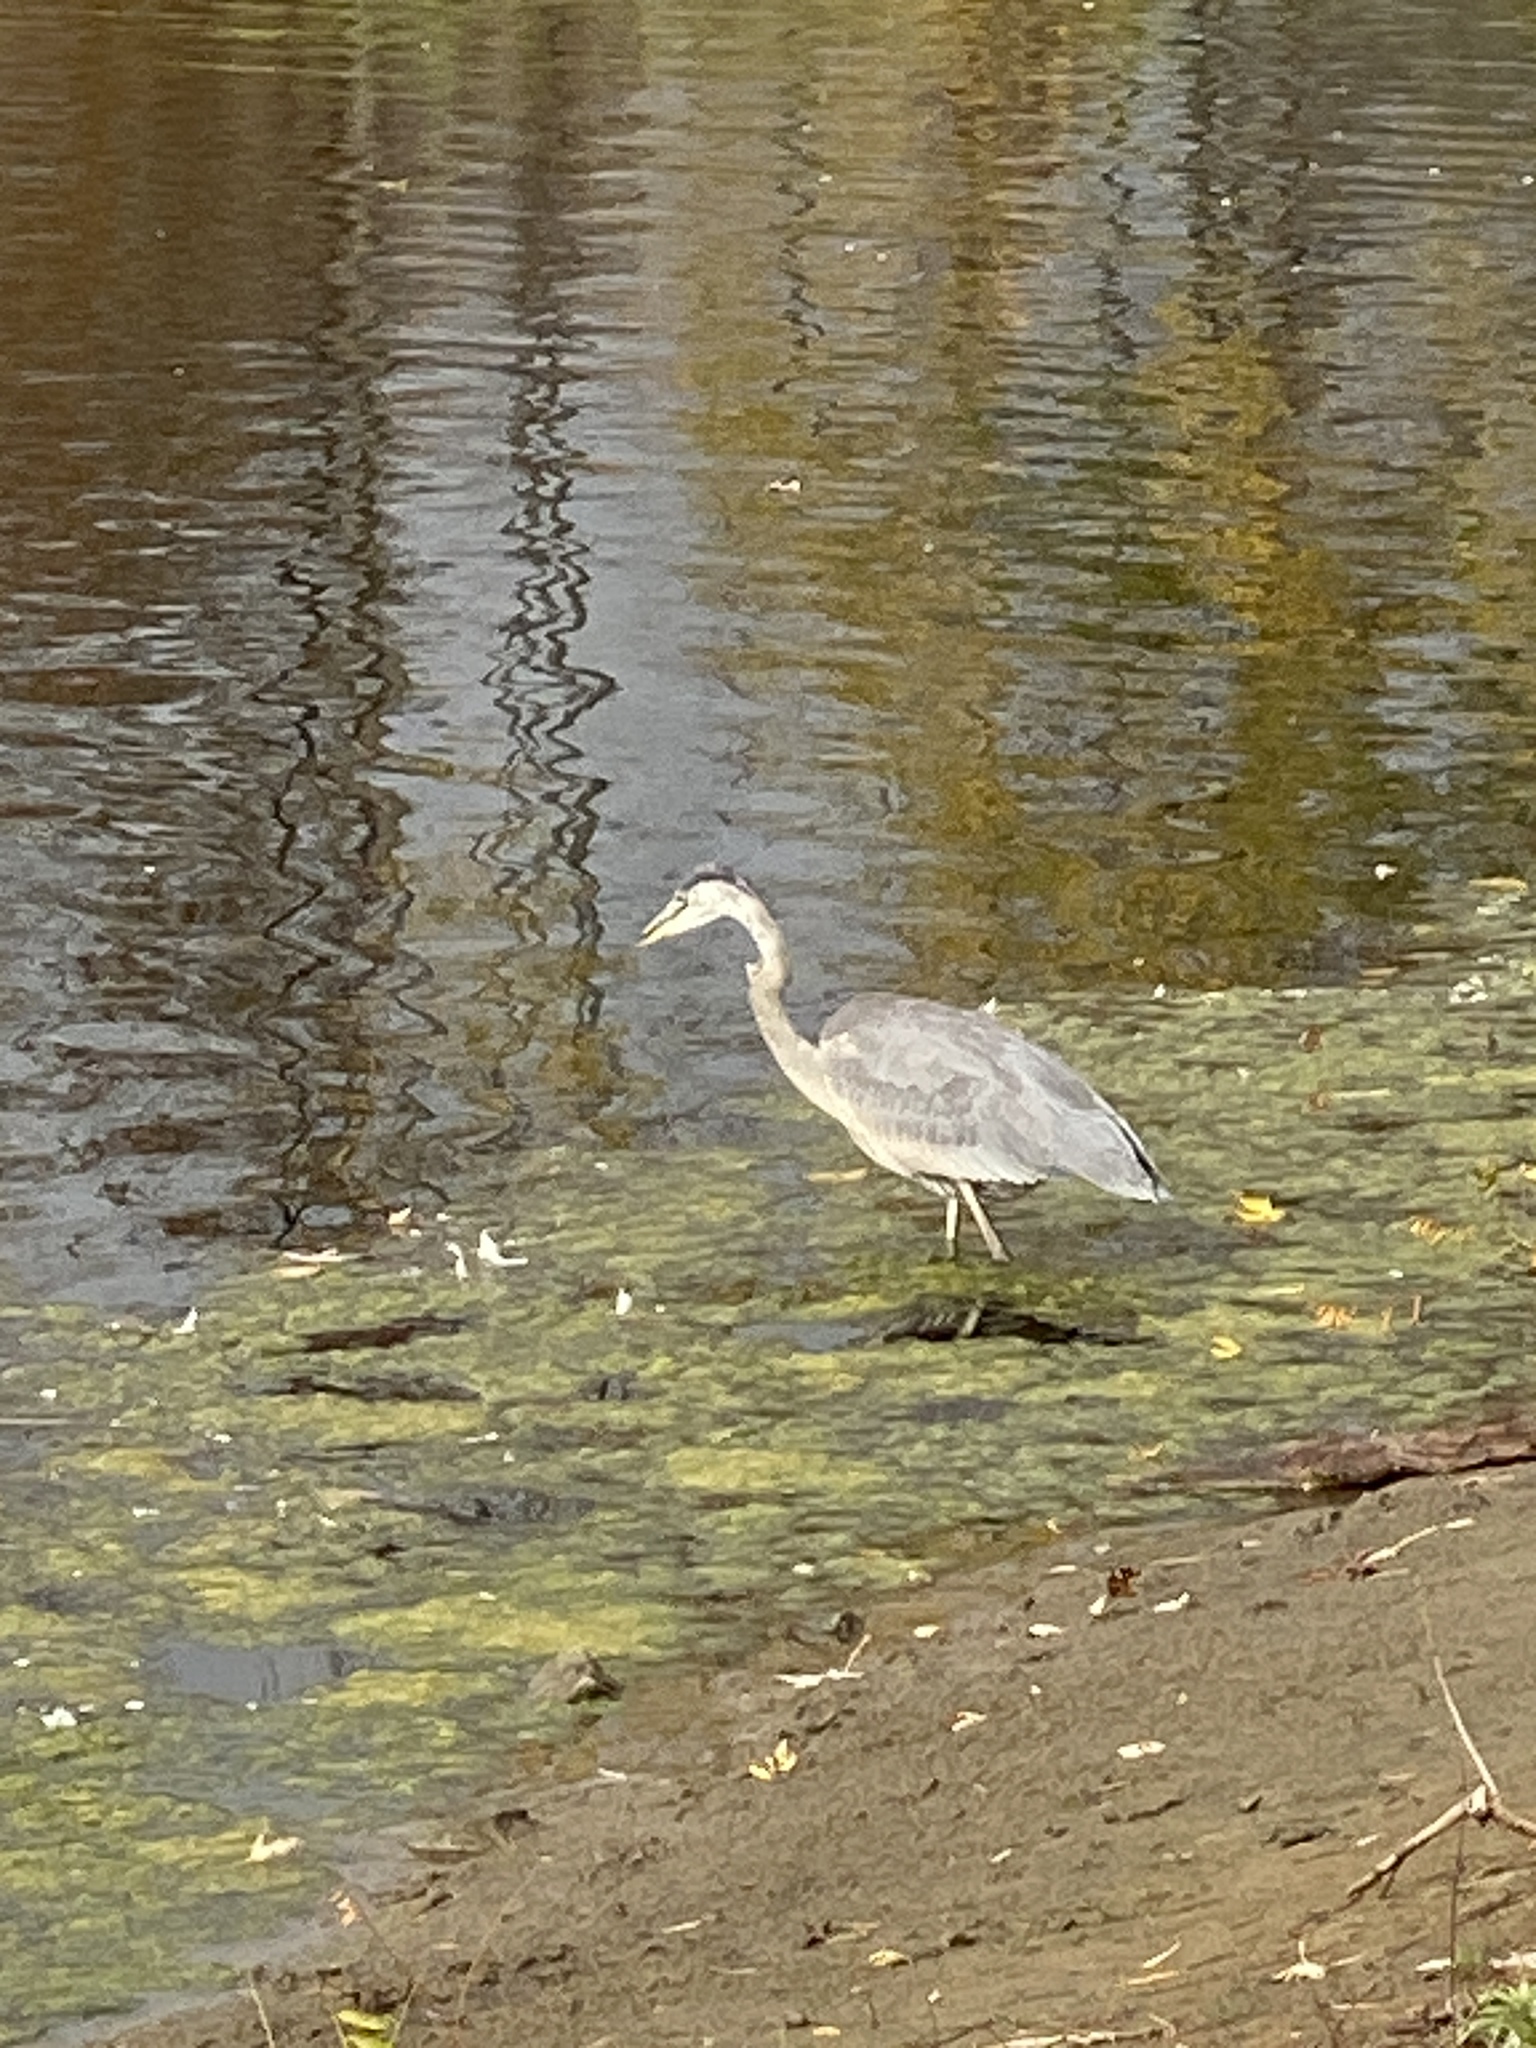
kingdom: Animalia
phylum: Chordata
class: Aves
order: Pelecaniformes
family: Ardeidae
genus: Ardea
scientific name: Ardea herodias
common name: Great blue heron
